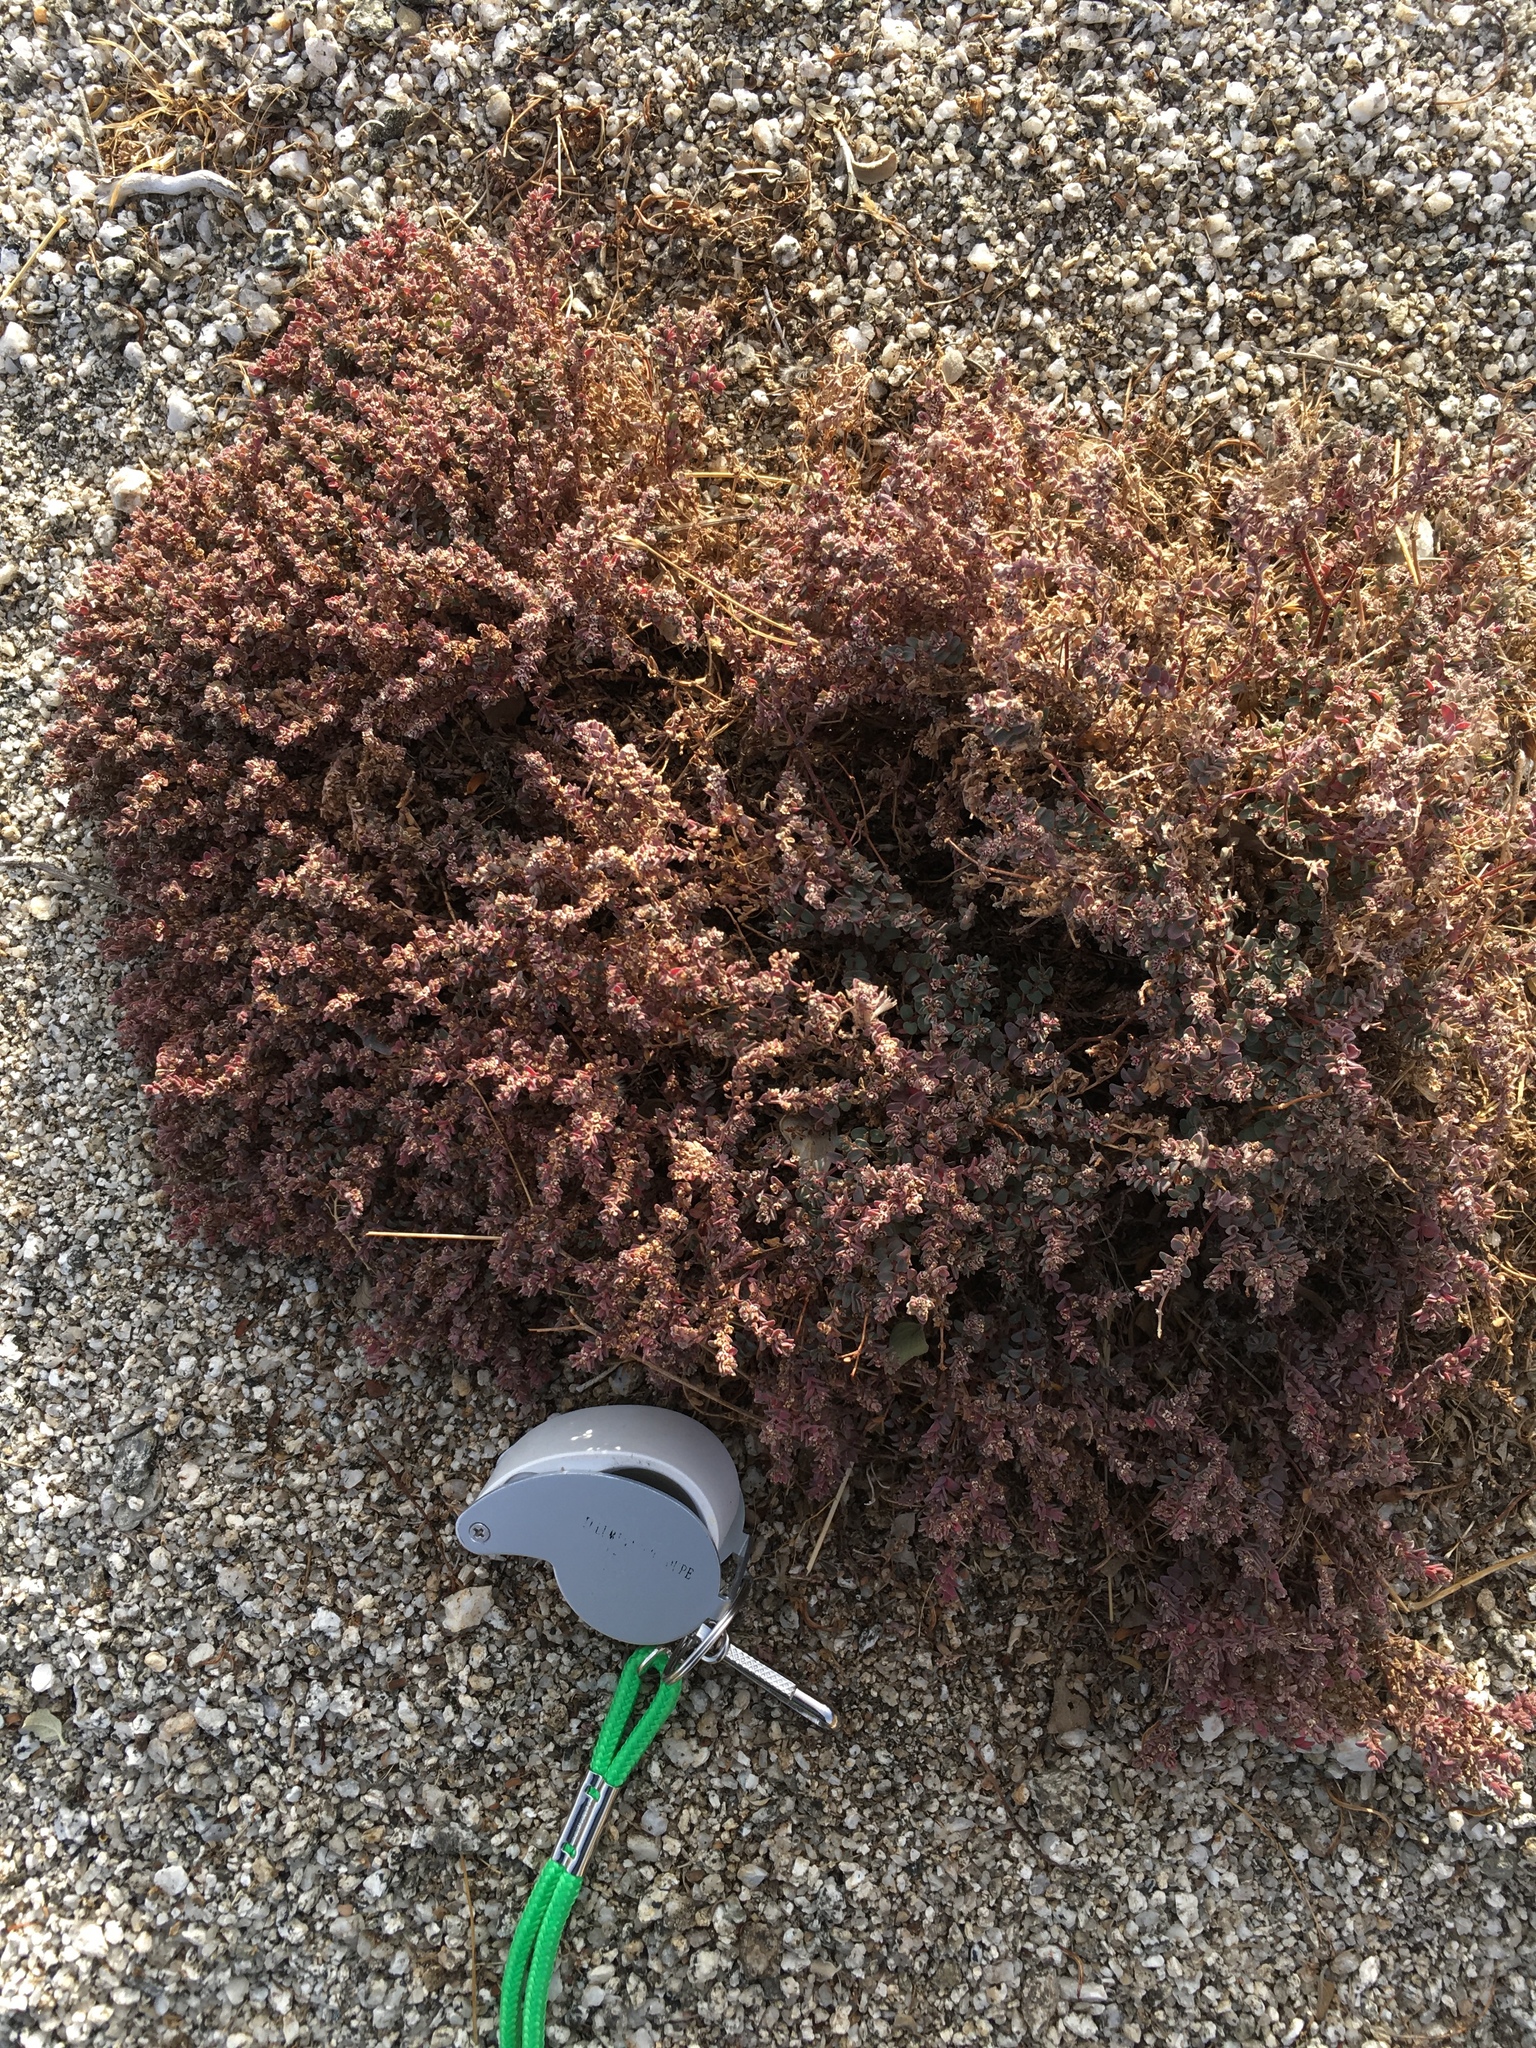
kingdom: Plantae
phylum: Tracheophyta
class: Magnoliopsida
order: Malpighiales
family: Euphorbiaceae
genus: Euphorbia
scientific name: Euphorbia melanadenia
